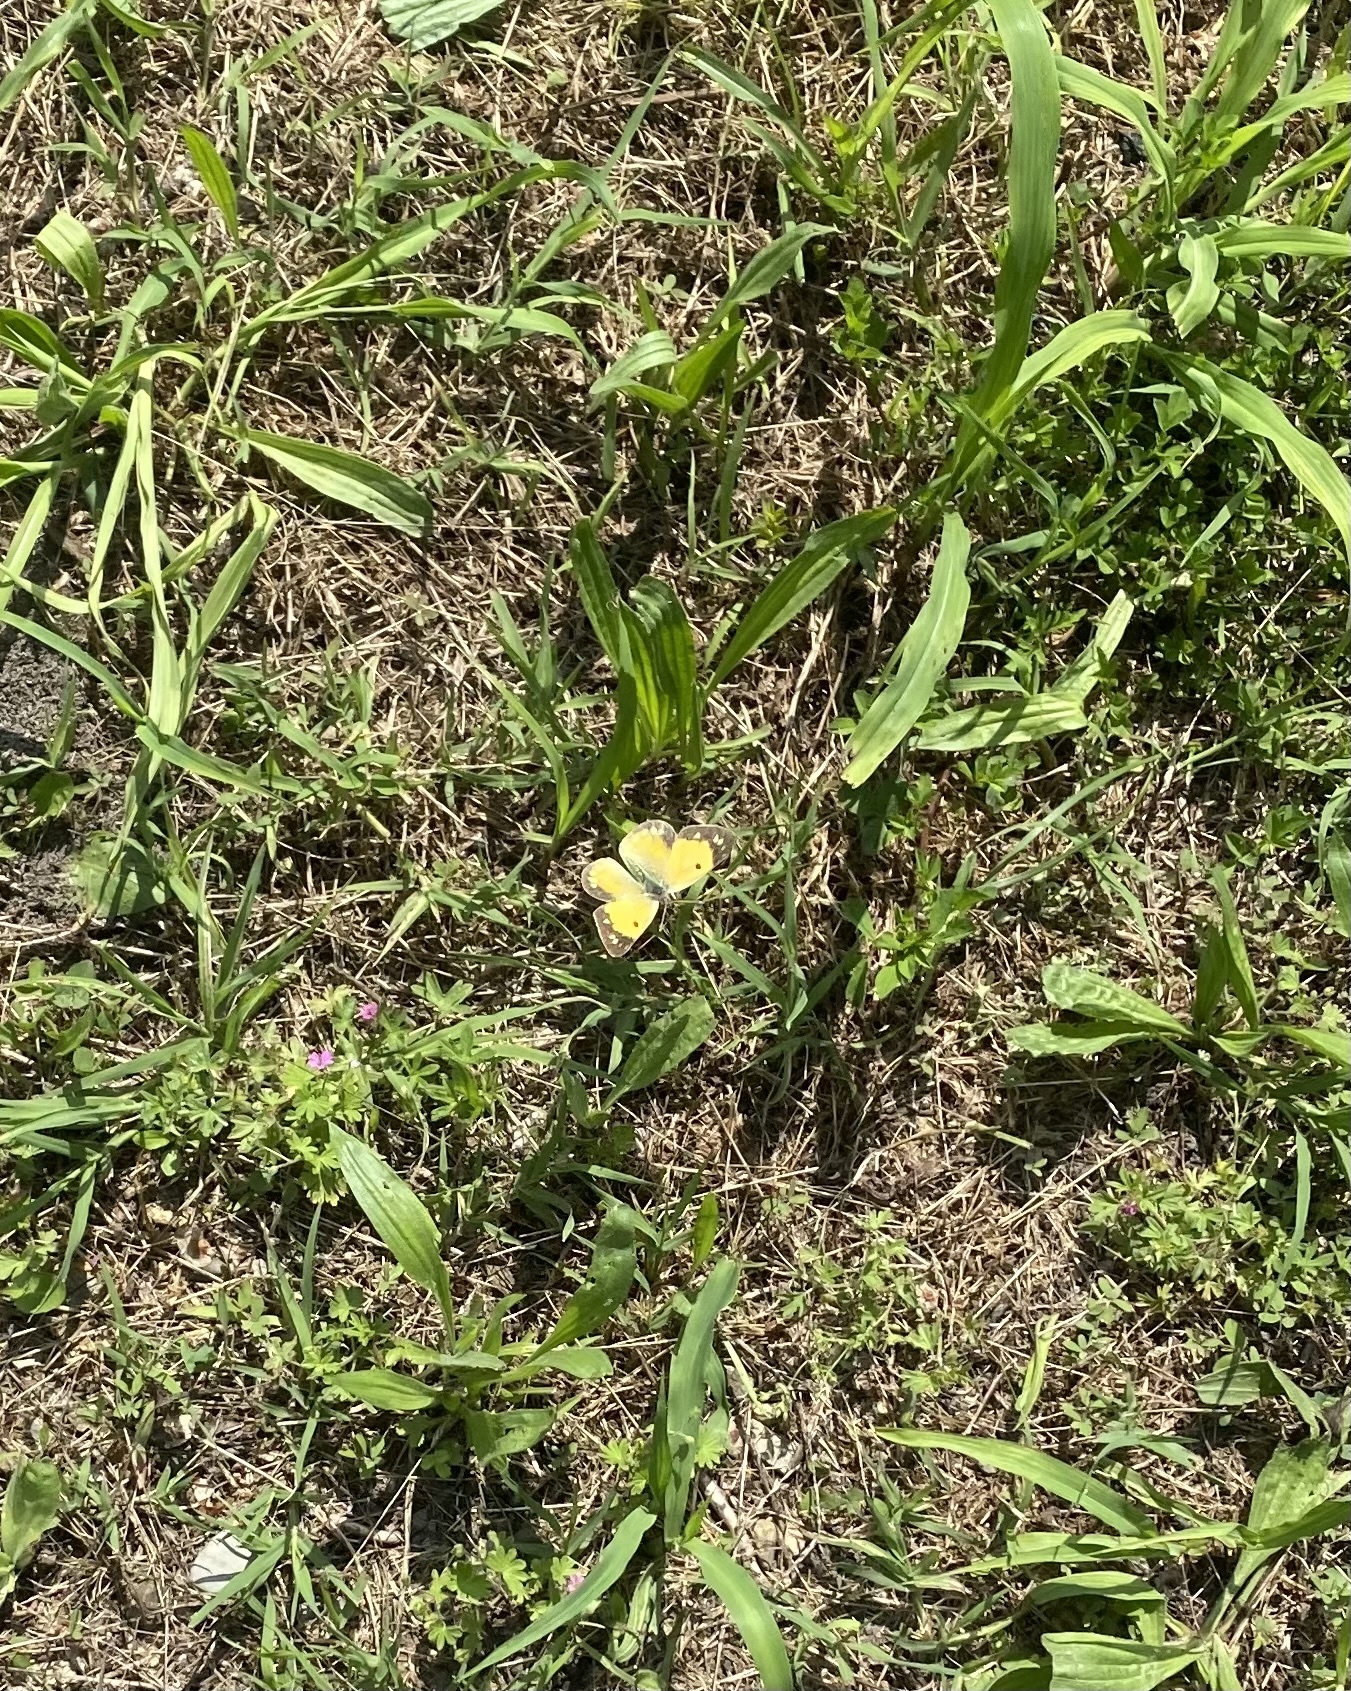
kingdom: Animalia
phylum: Arthropoda
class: Insecta
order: Lepidoptera
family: Pieridae
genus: Colias
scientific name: Colias croceus
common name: Clouded yellow
